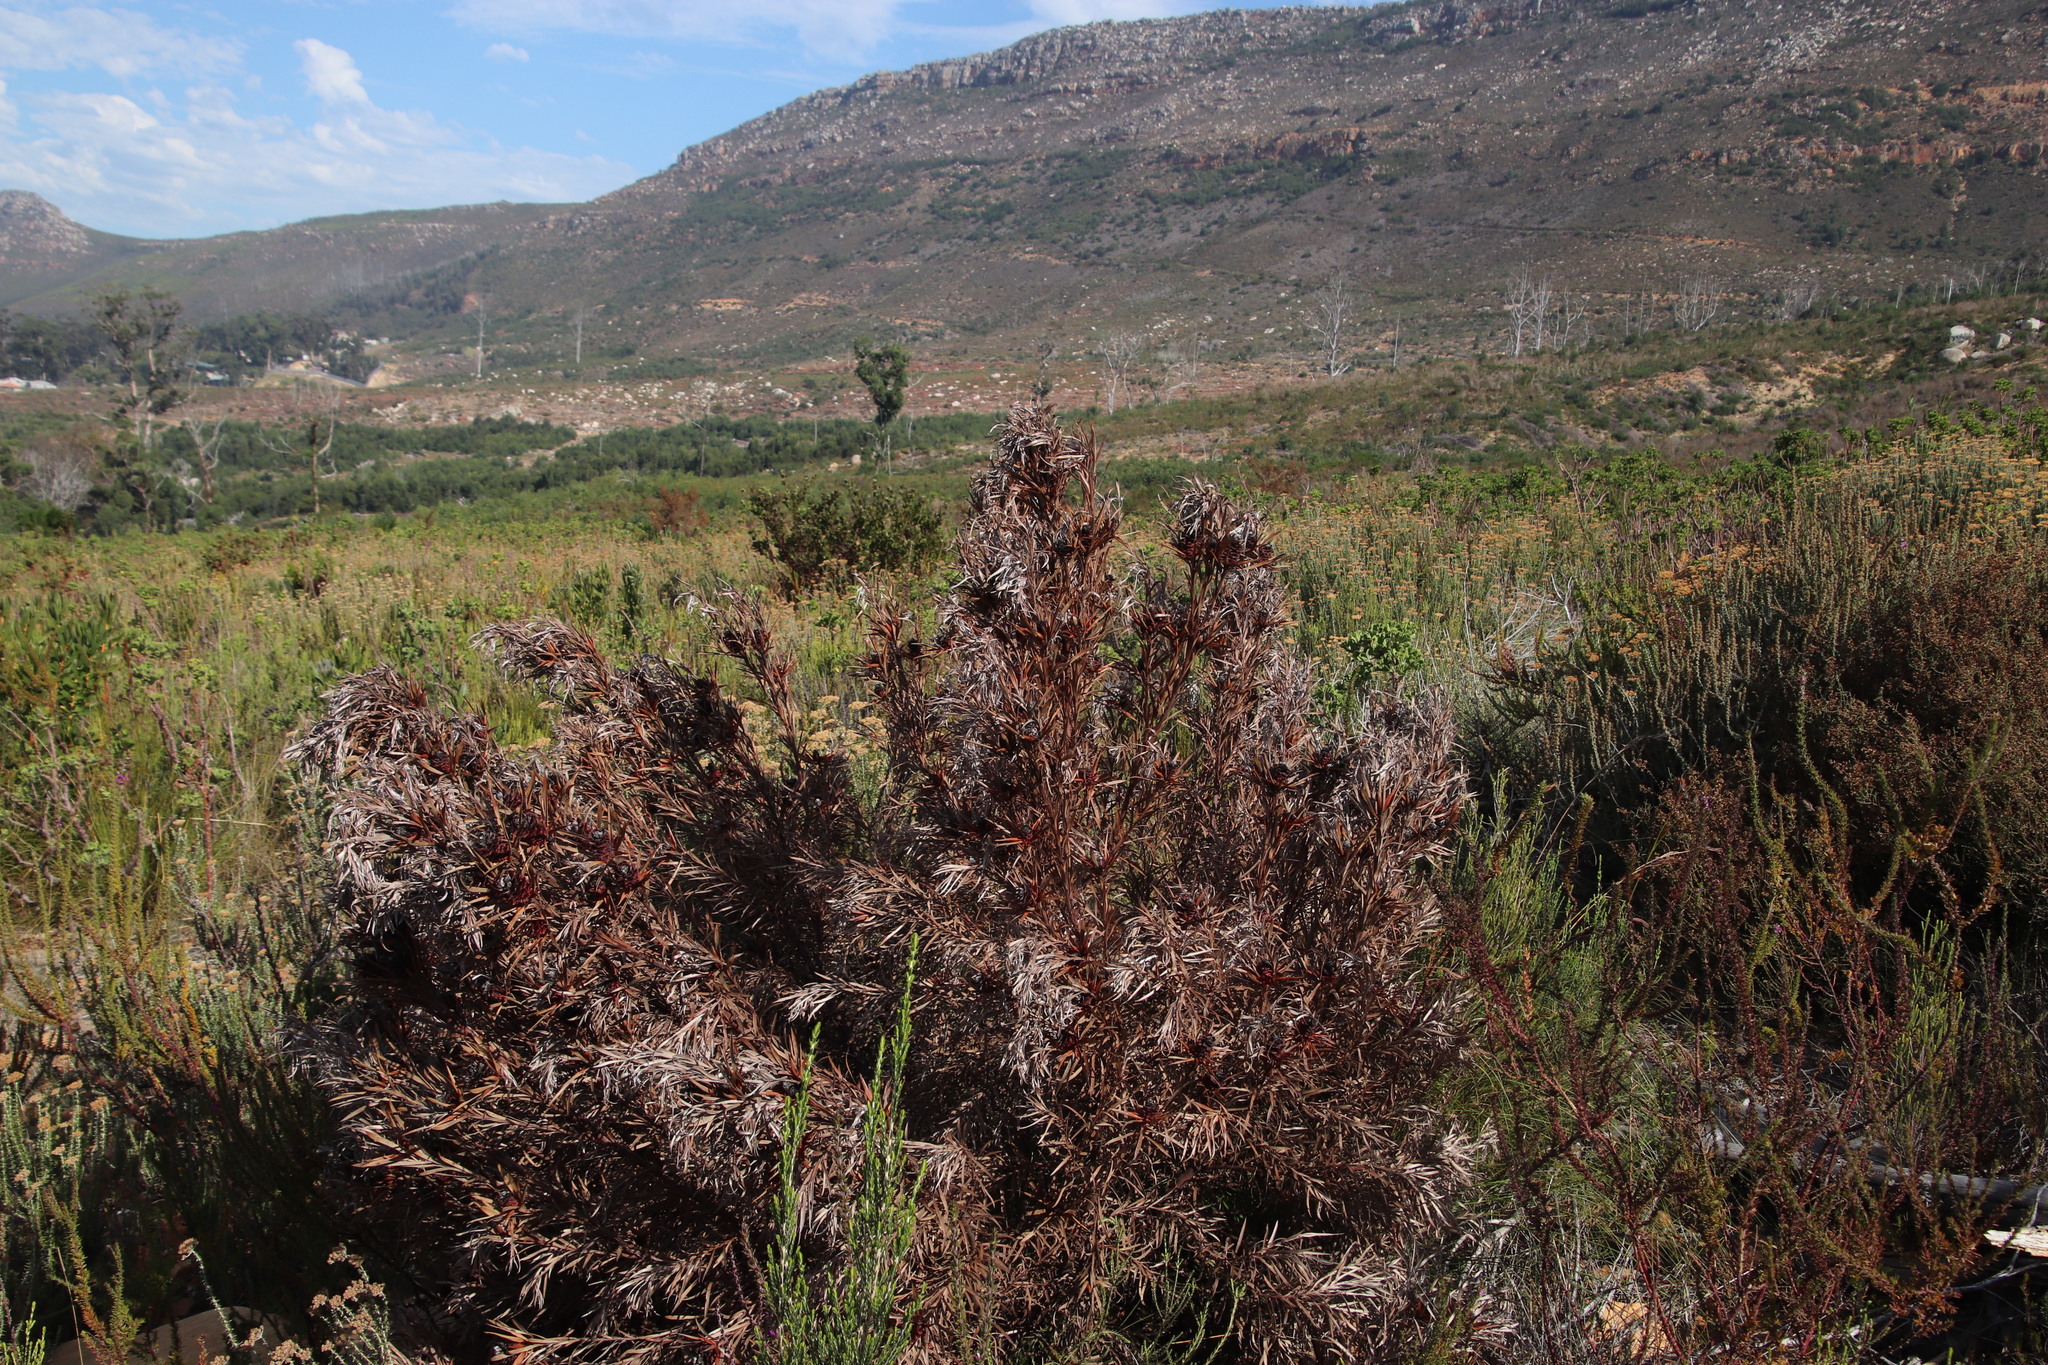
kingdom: Plantae
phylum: Tracheophyta
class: Magnoliopsida
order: Proteales
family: Proteaceae
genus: Leucadendron
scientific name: Leucadendron xanthoconus
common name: Sickle-leaf conebush
